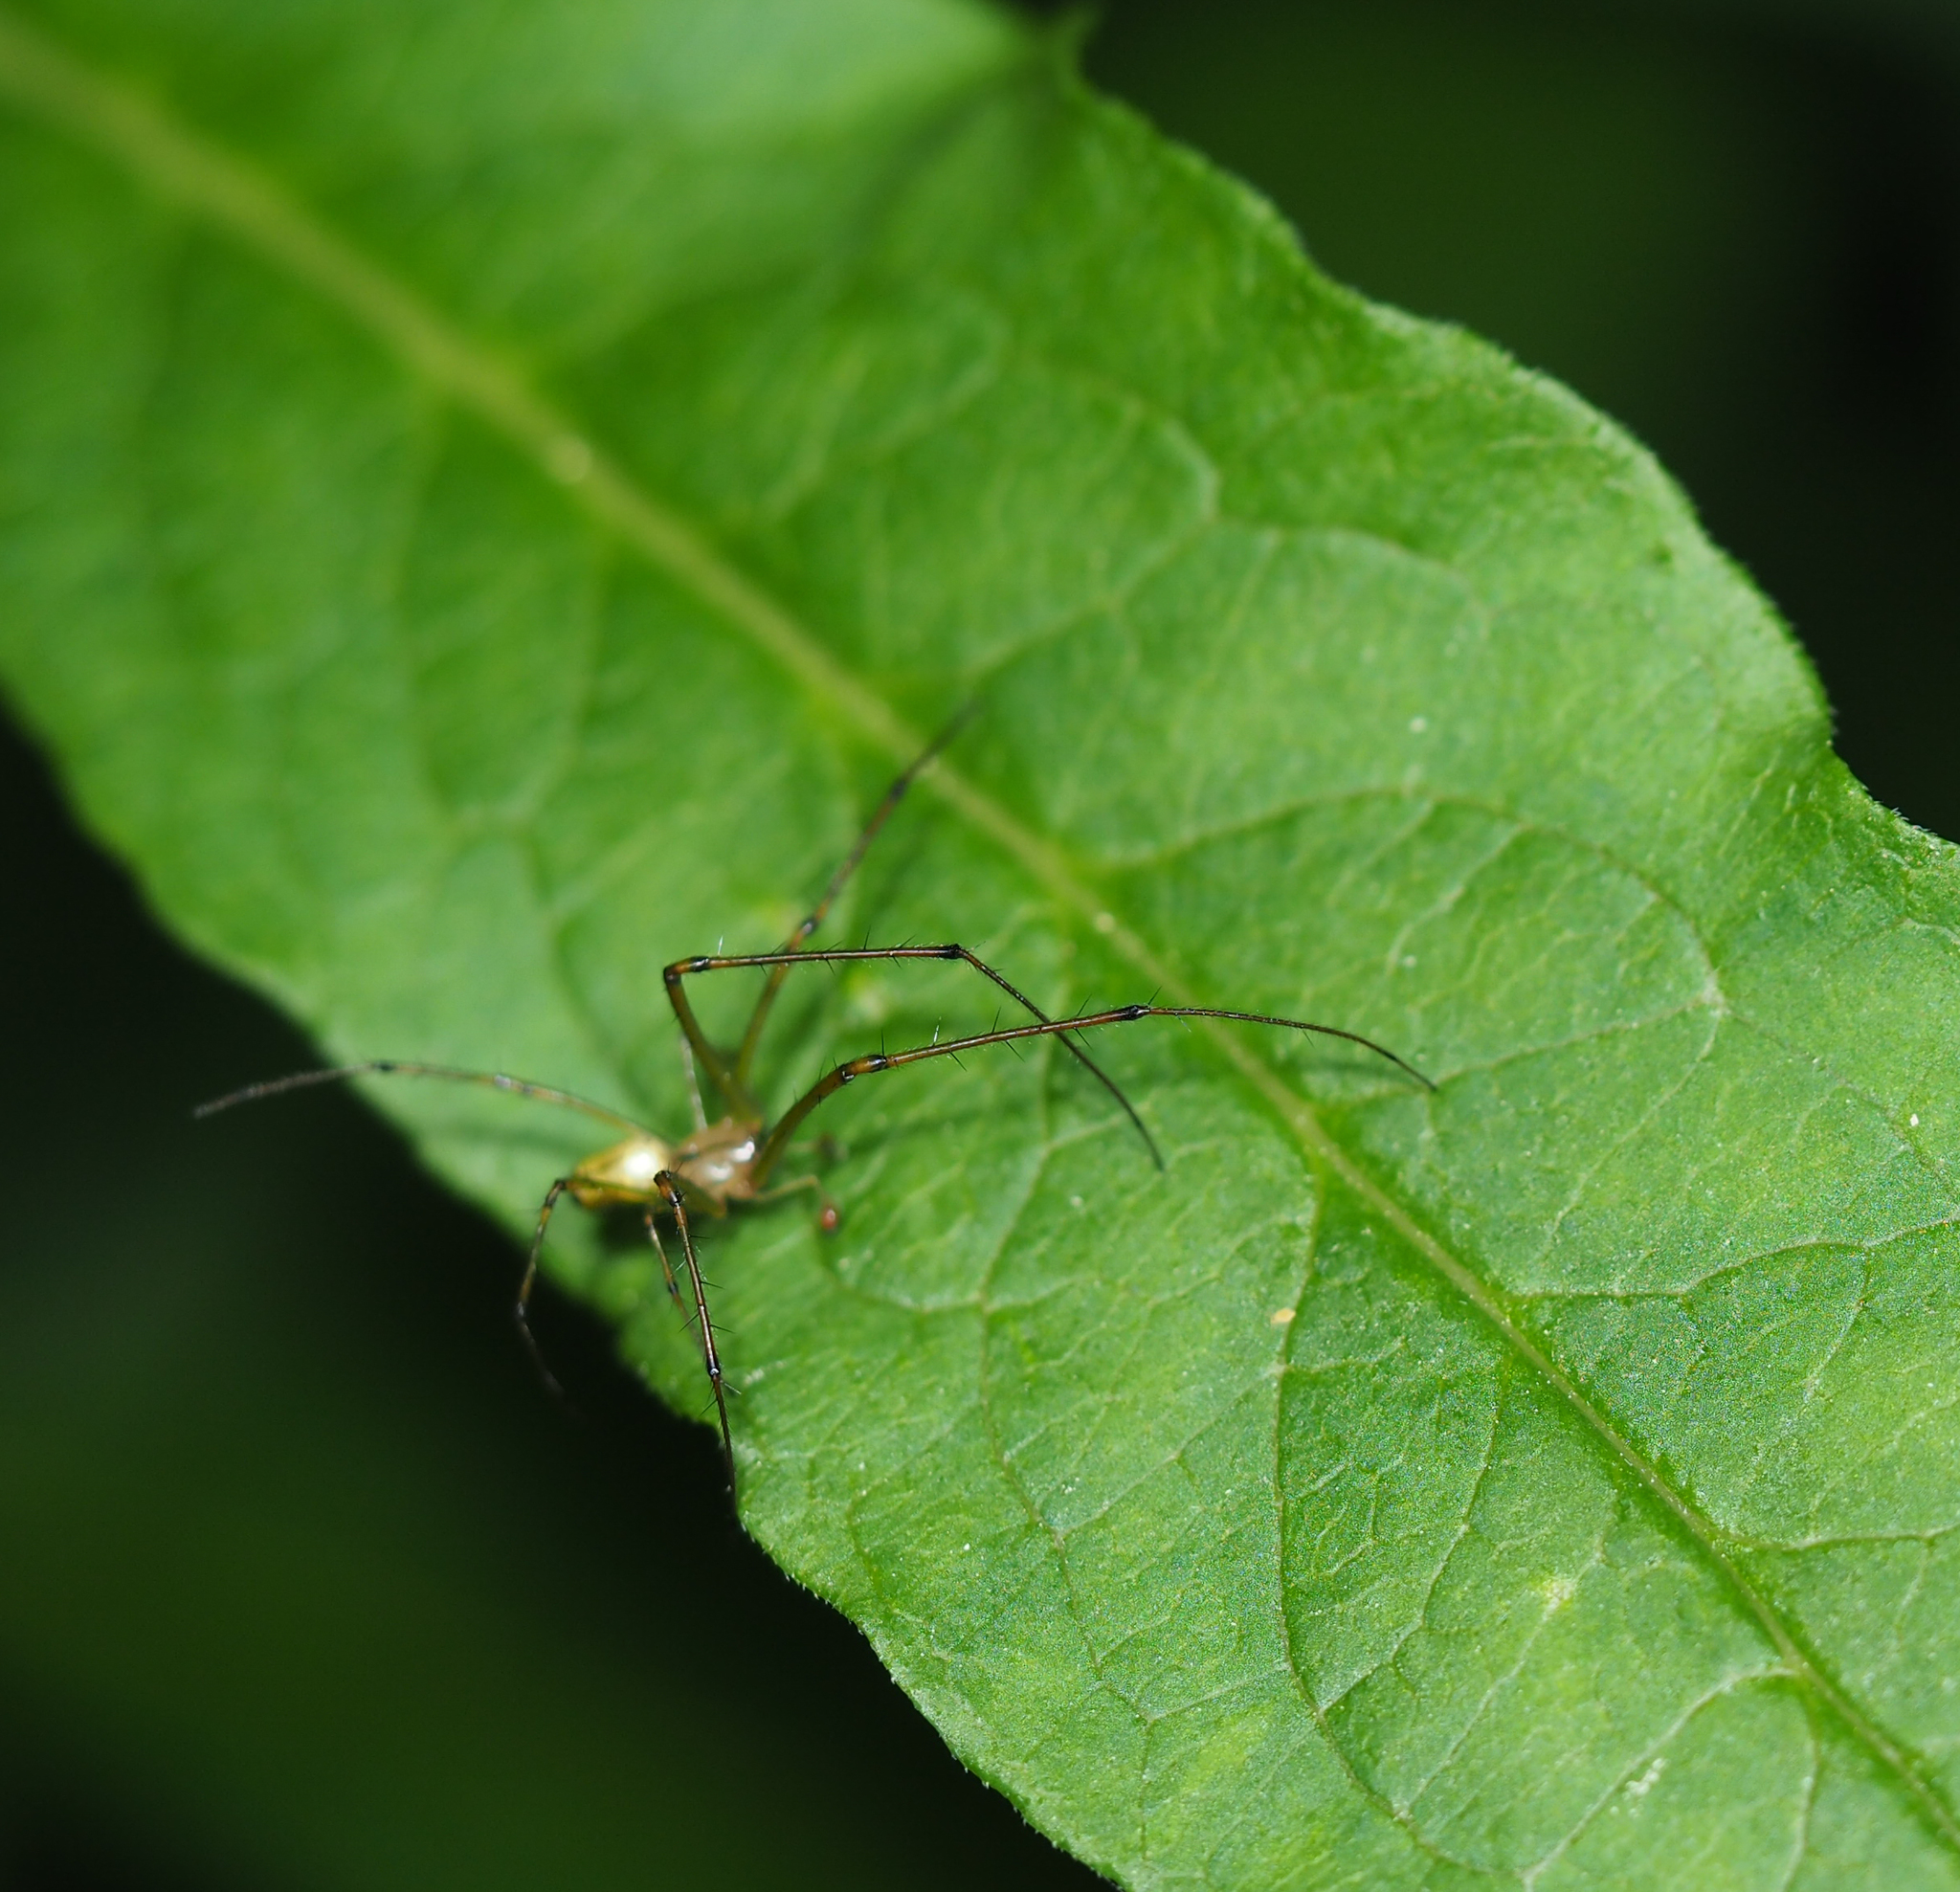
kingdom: Animalia
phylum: Arthropoda
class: Arachnida
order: Araneae
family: Tetragnathidae
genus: Leucauge
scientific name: Leucauge venusta
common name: Longjawed orb weavers
